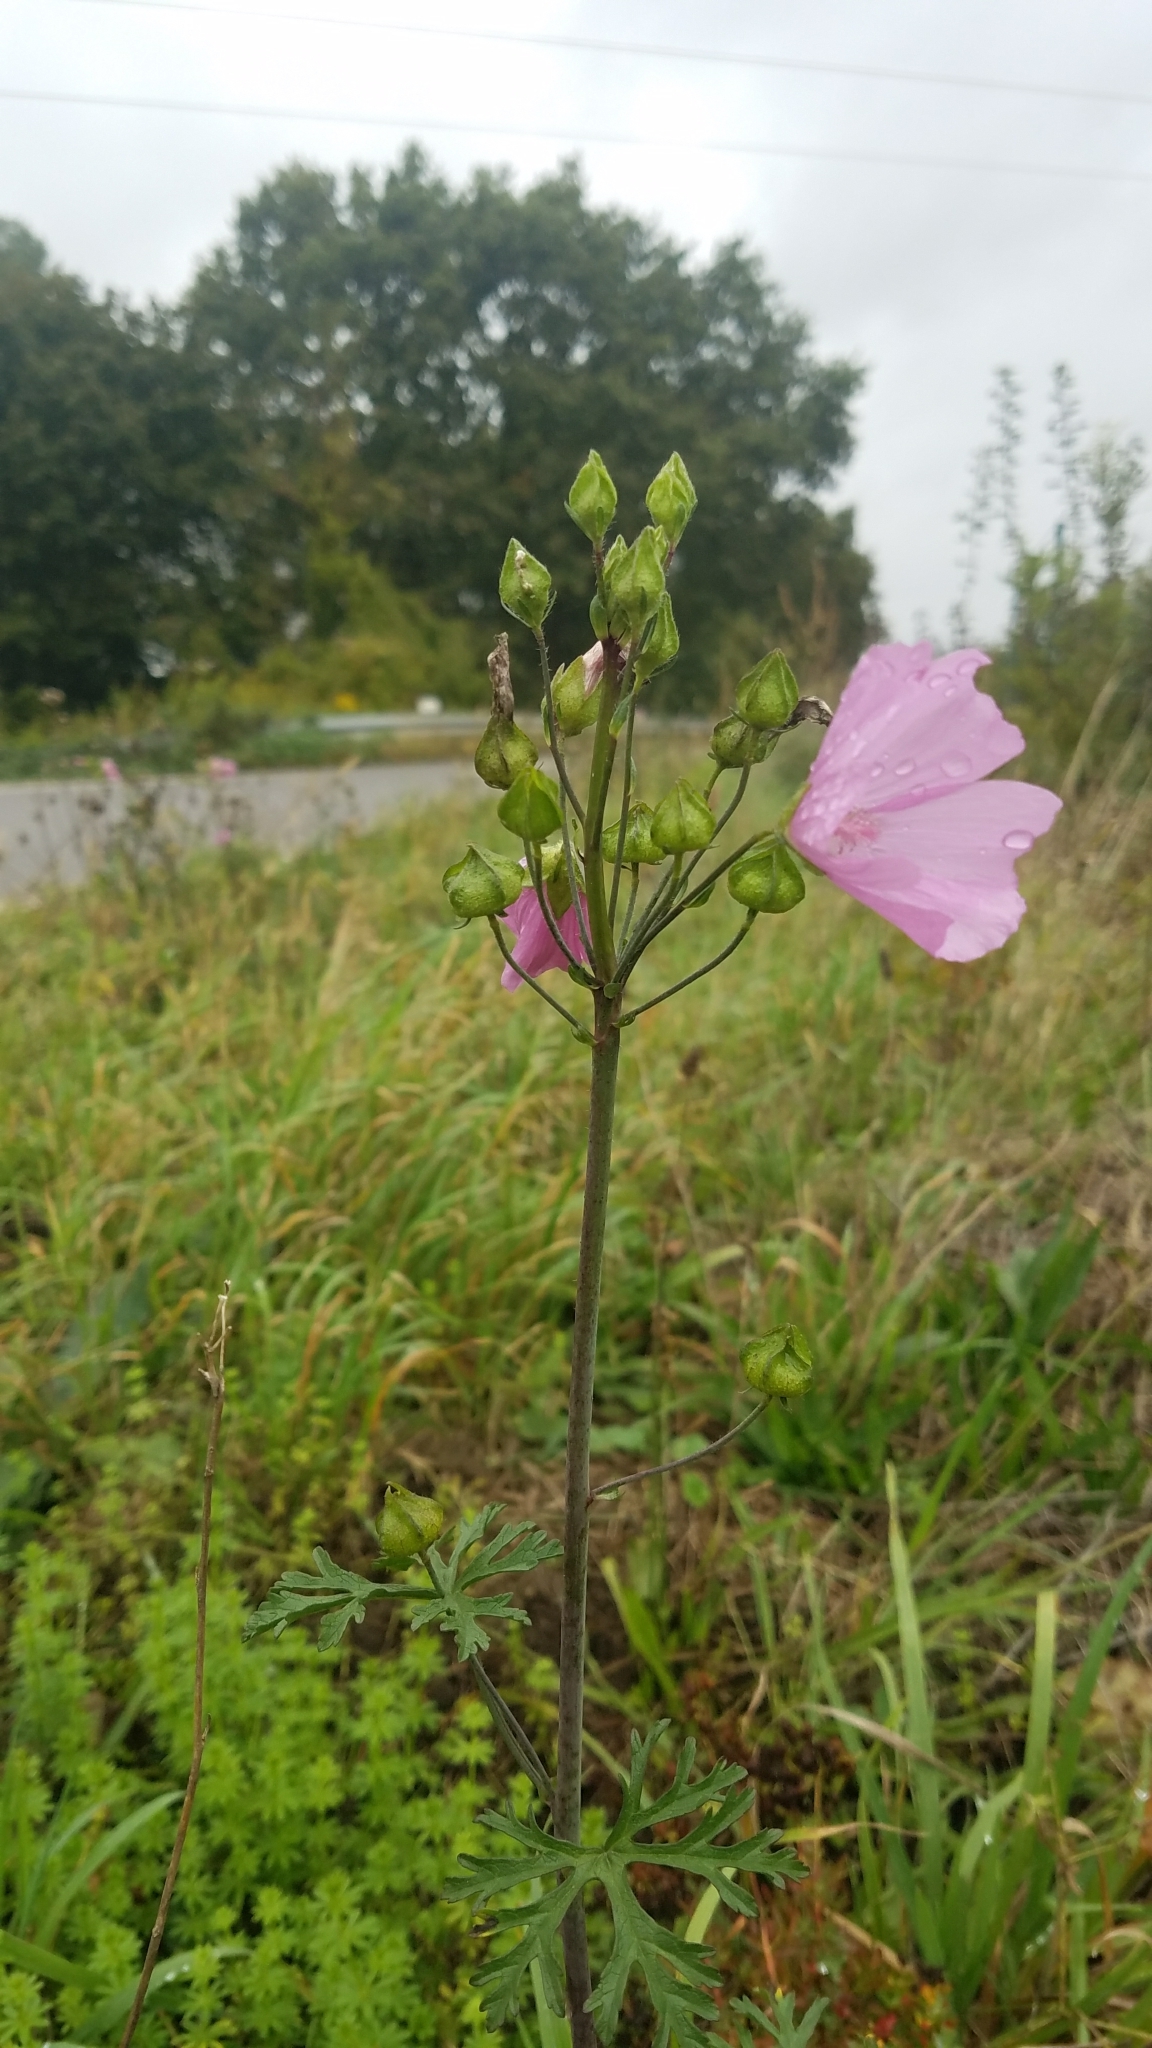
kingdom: Plantae
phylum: Tracheophyta
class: Magnoliopsida
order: Malvales
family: Malvaceae
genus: Malva
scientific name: Malva moschata
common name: Musk mallow
